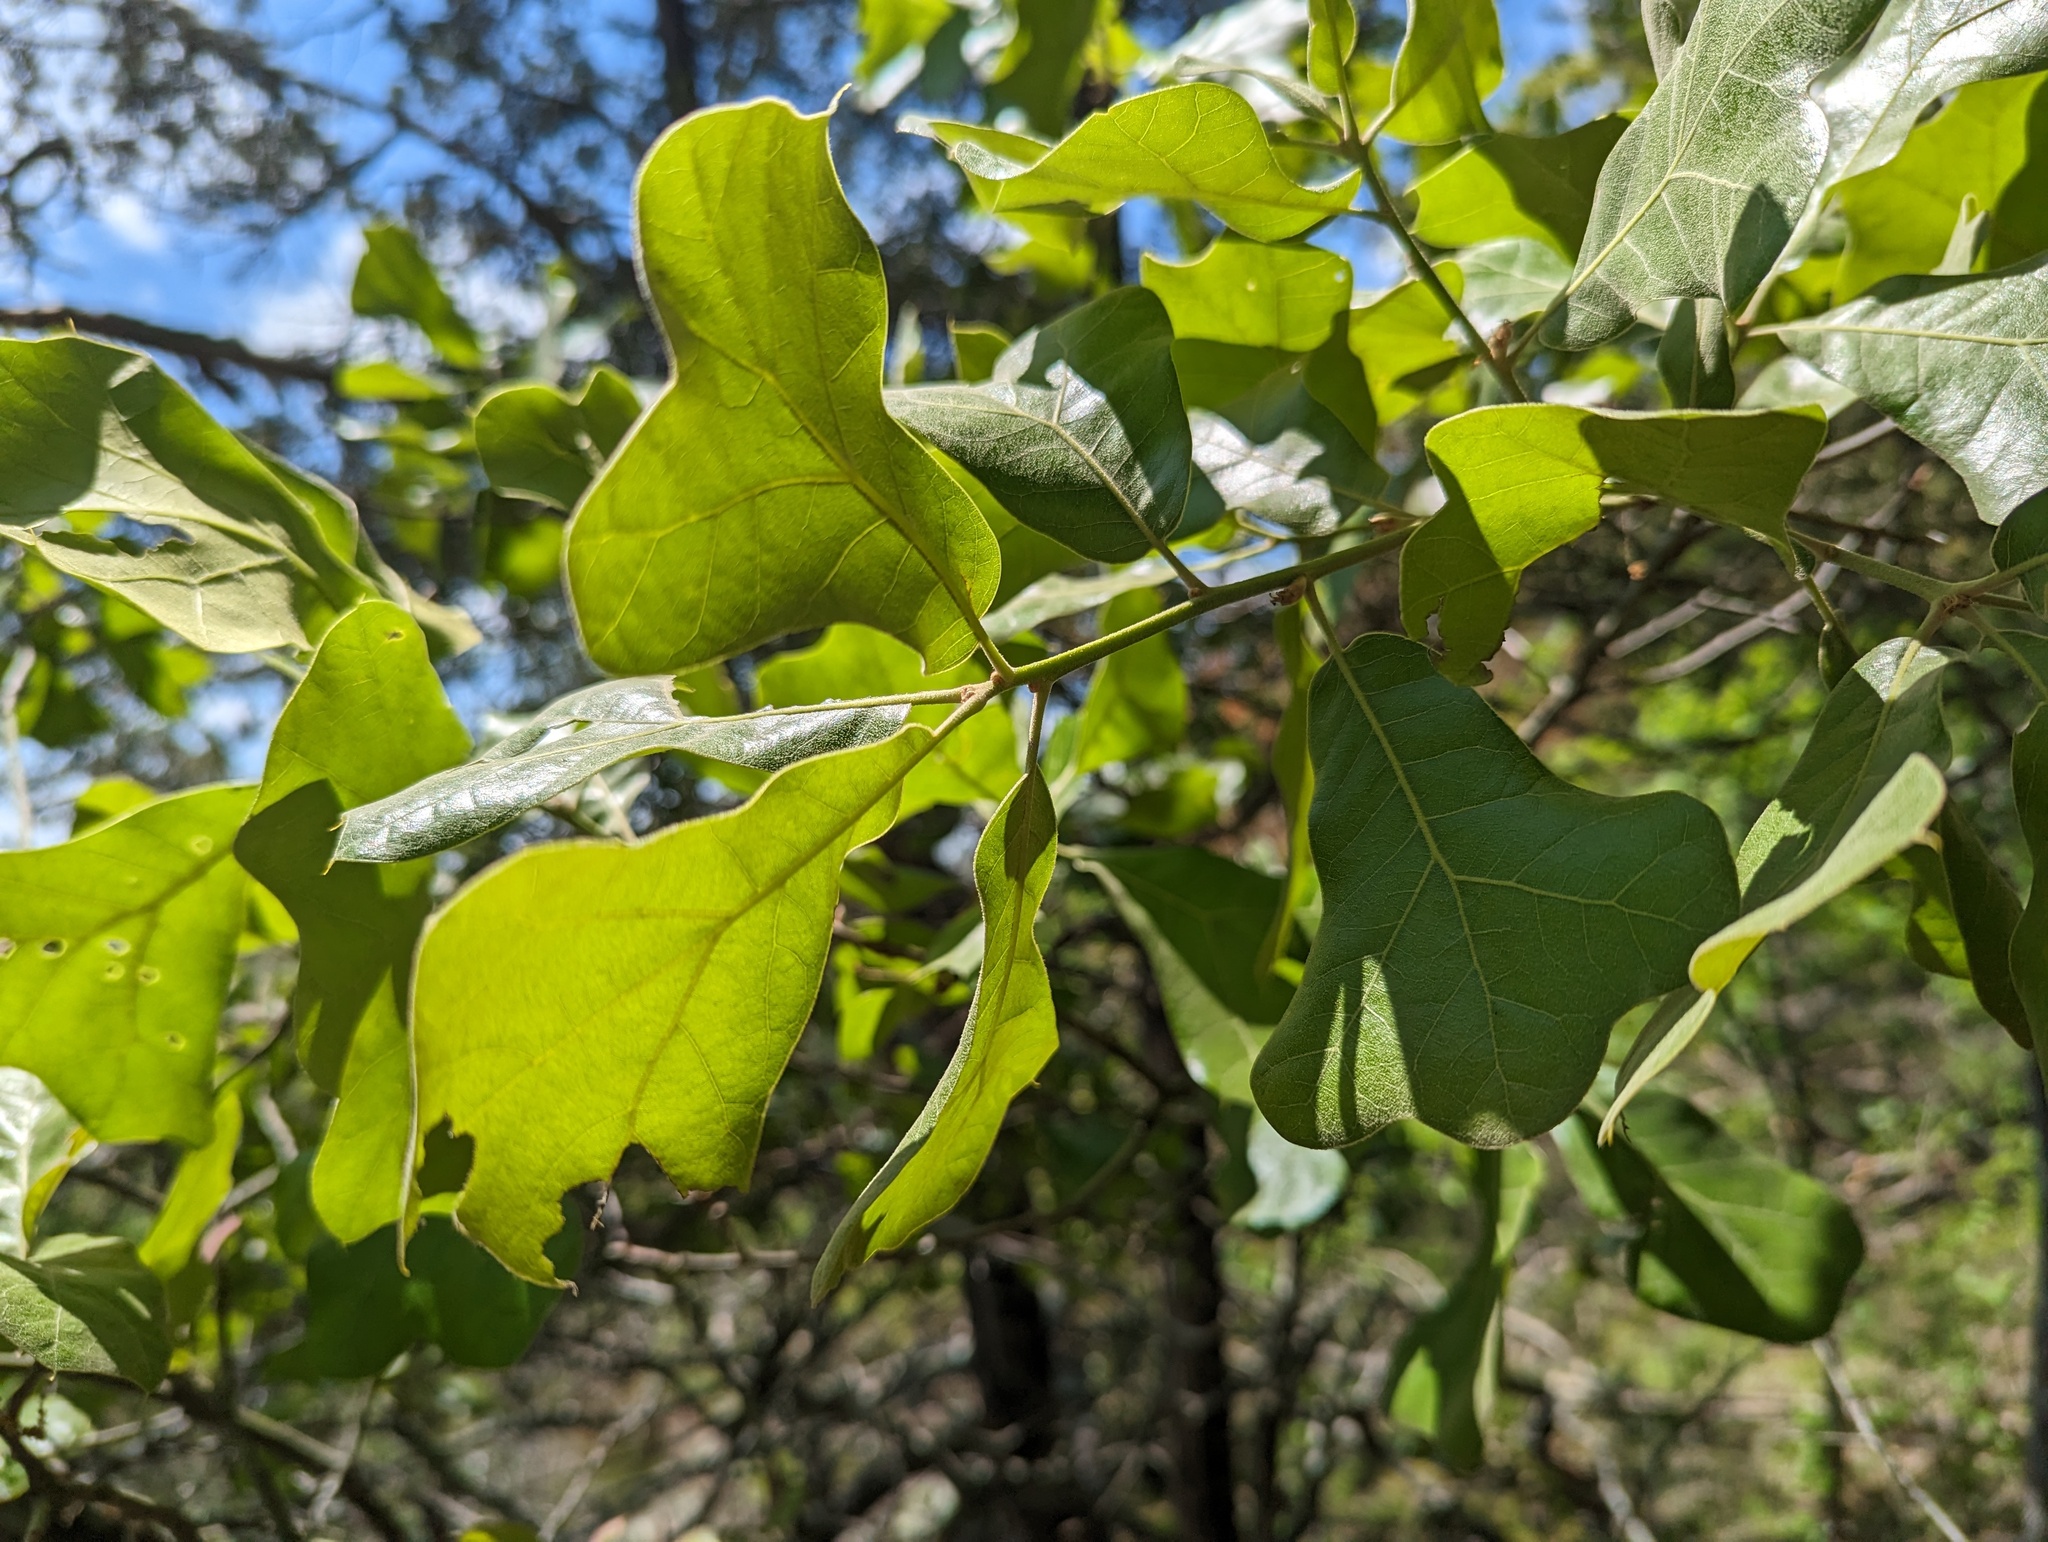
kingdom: Plantae
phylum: Tracheophyta
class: Magnoliopsida
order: Fagales
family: Fagaceae
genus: Quercus
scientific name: Quercus marilandica
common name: Blackjack oak
